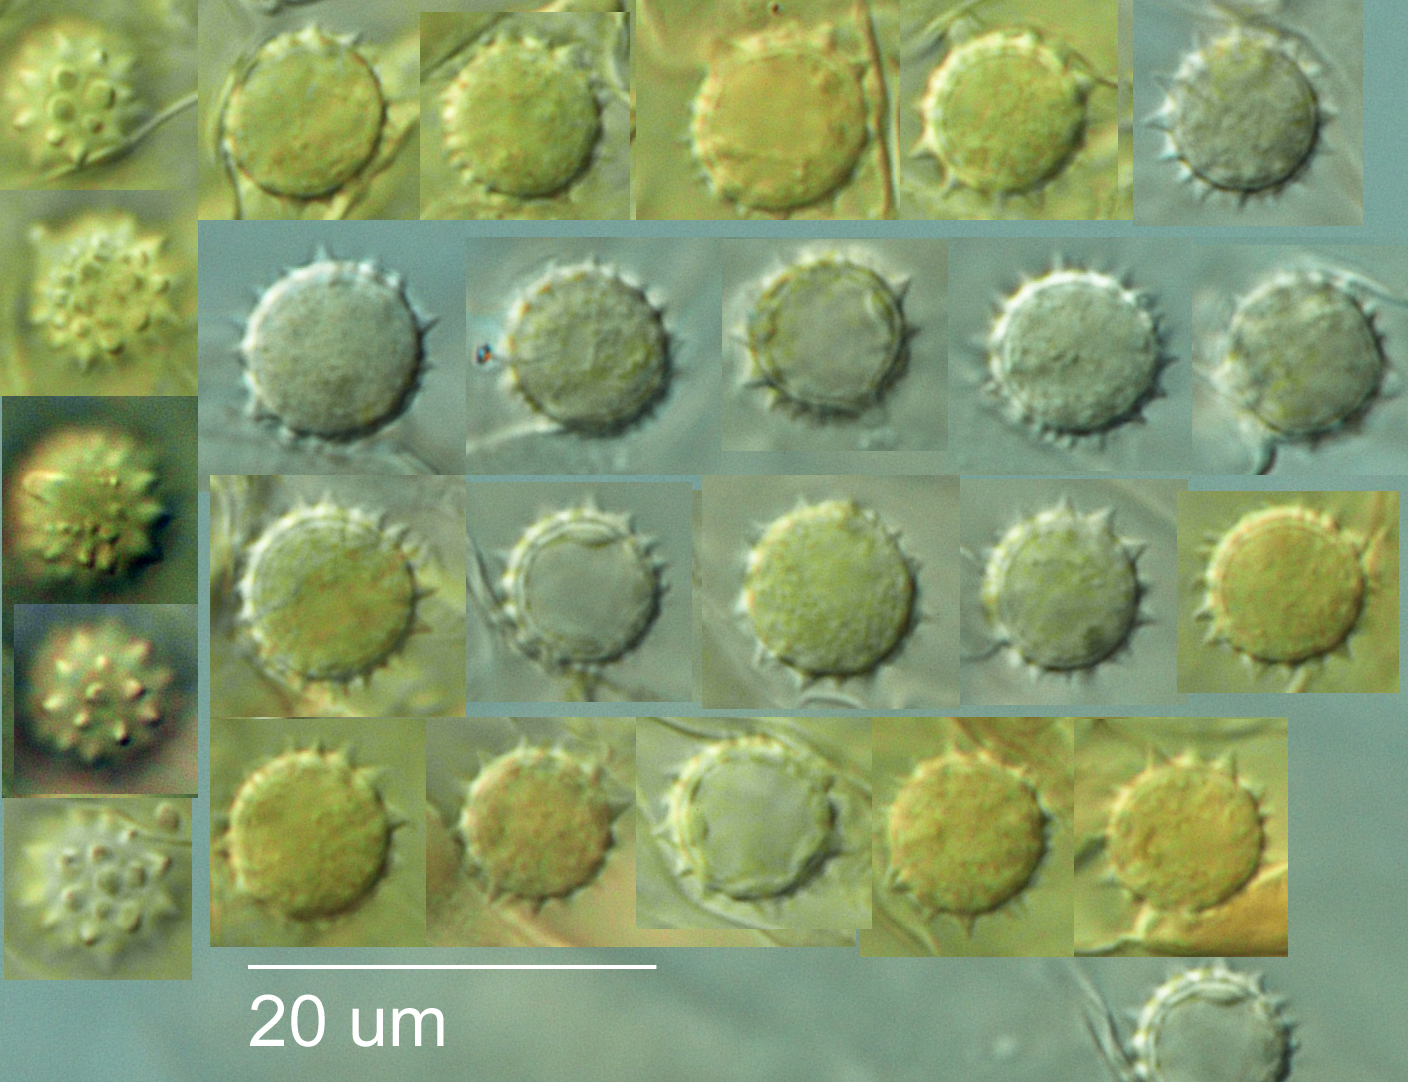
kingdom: Fungi
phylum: Basidiomycota
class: Agaricomycetes
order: Agaricales
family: Hydnangiaceae
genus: Laccaria
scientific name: Laccaria glabripes
